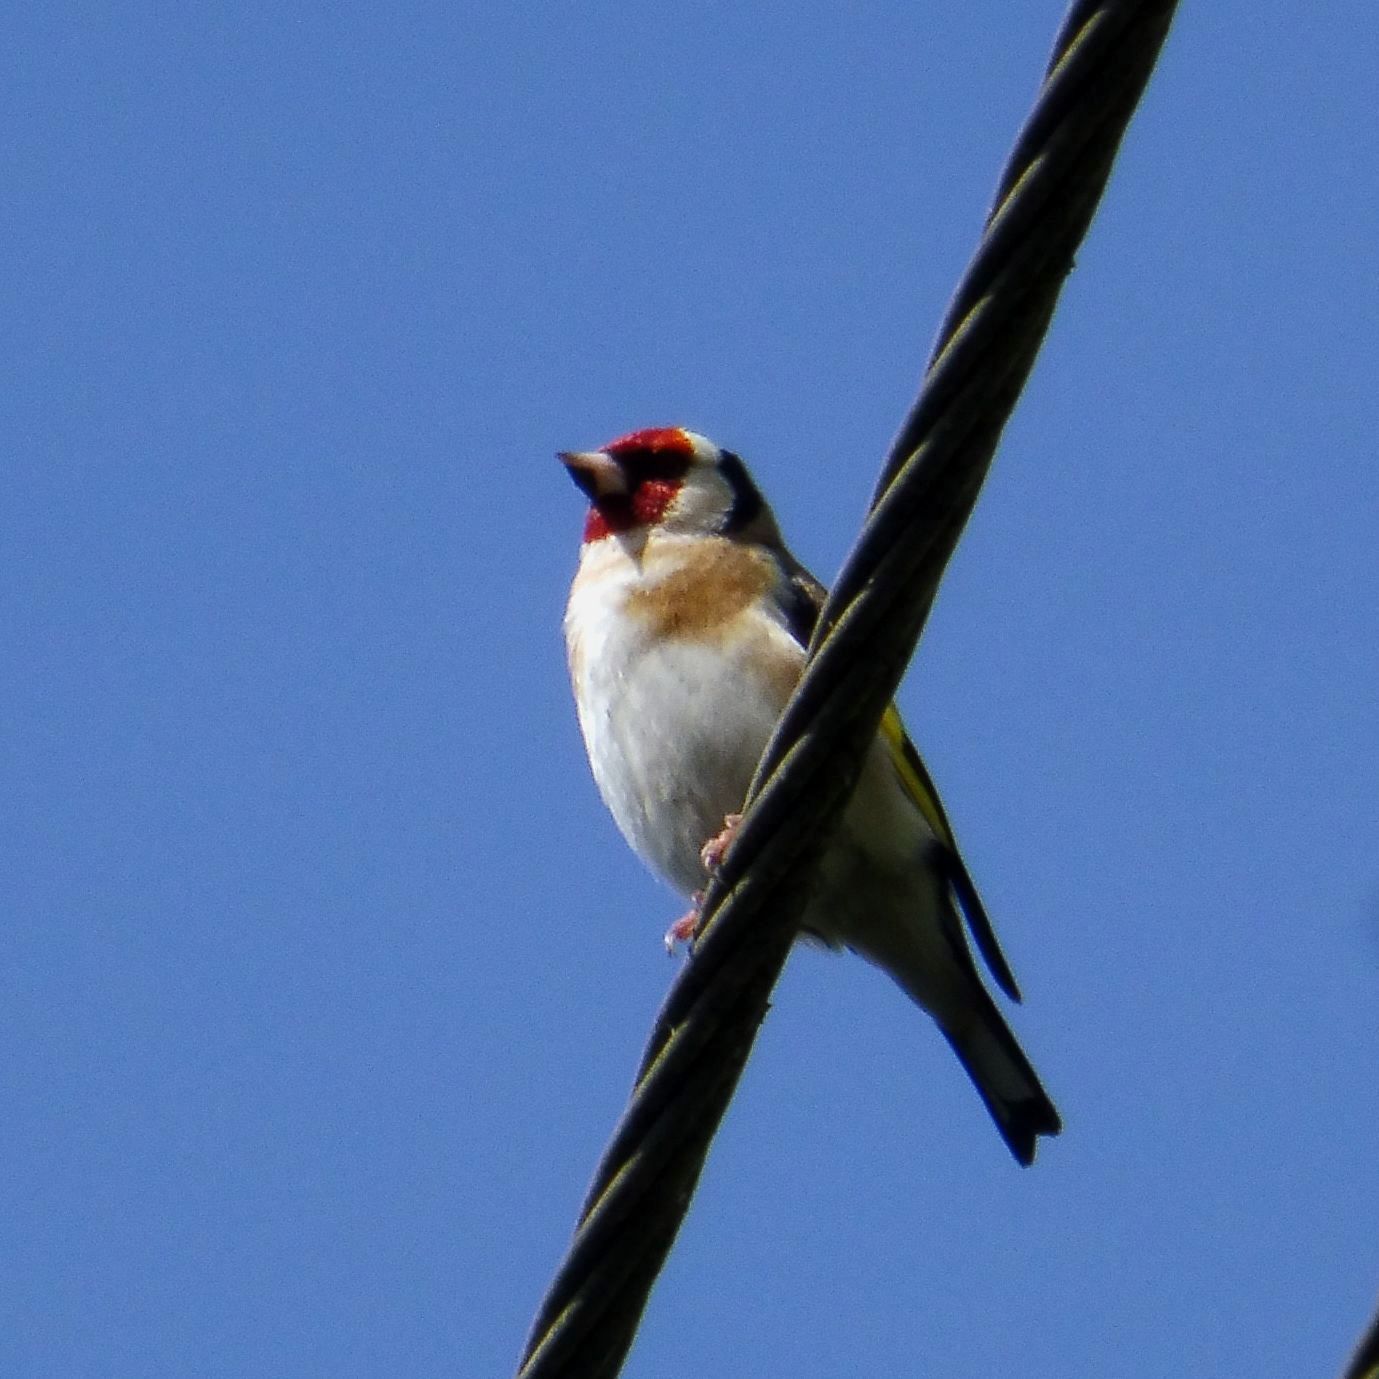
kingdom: Animalia
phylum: Chordata
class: Aves
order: Passeriformes
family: Fringillidae
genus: Carduelis
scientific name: Carduelis carduelis
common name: European goldfinch
